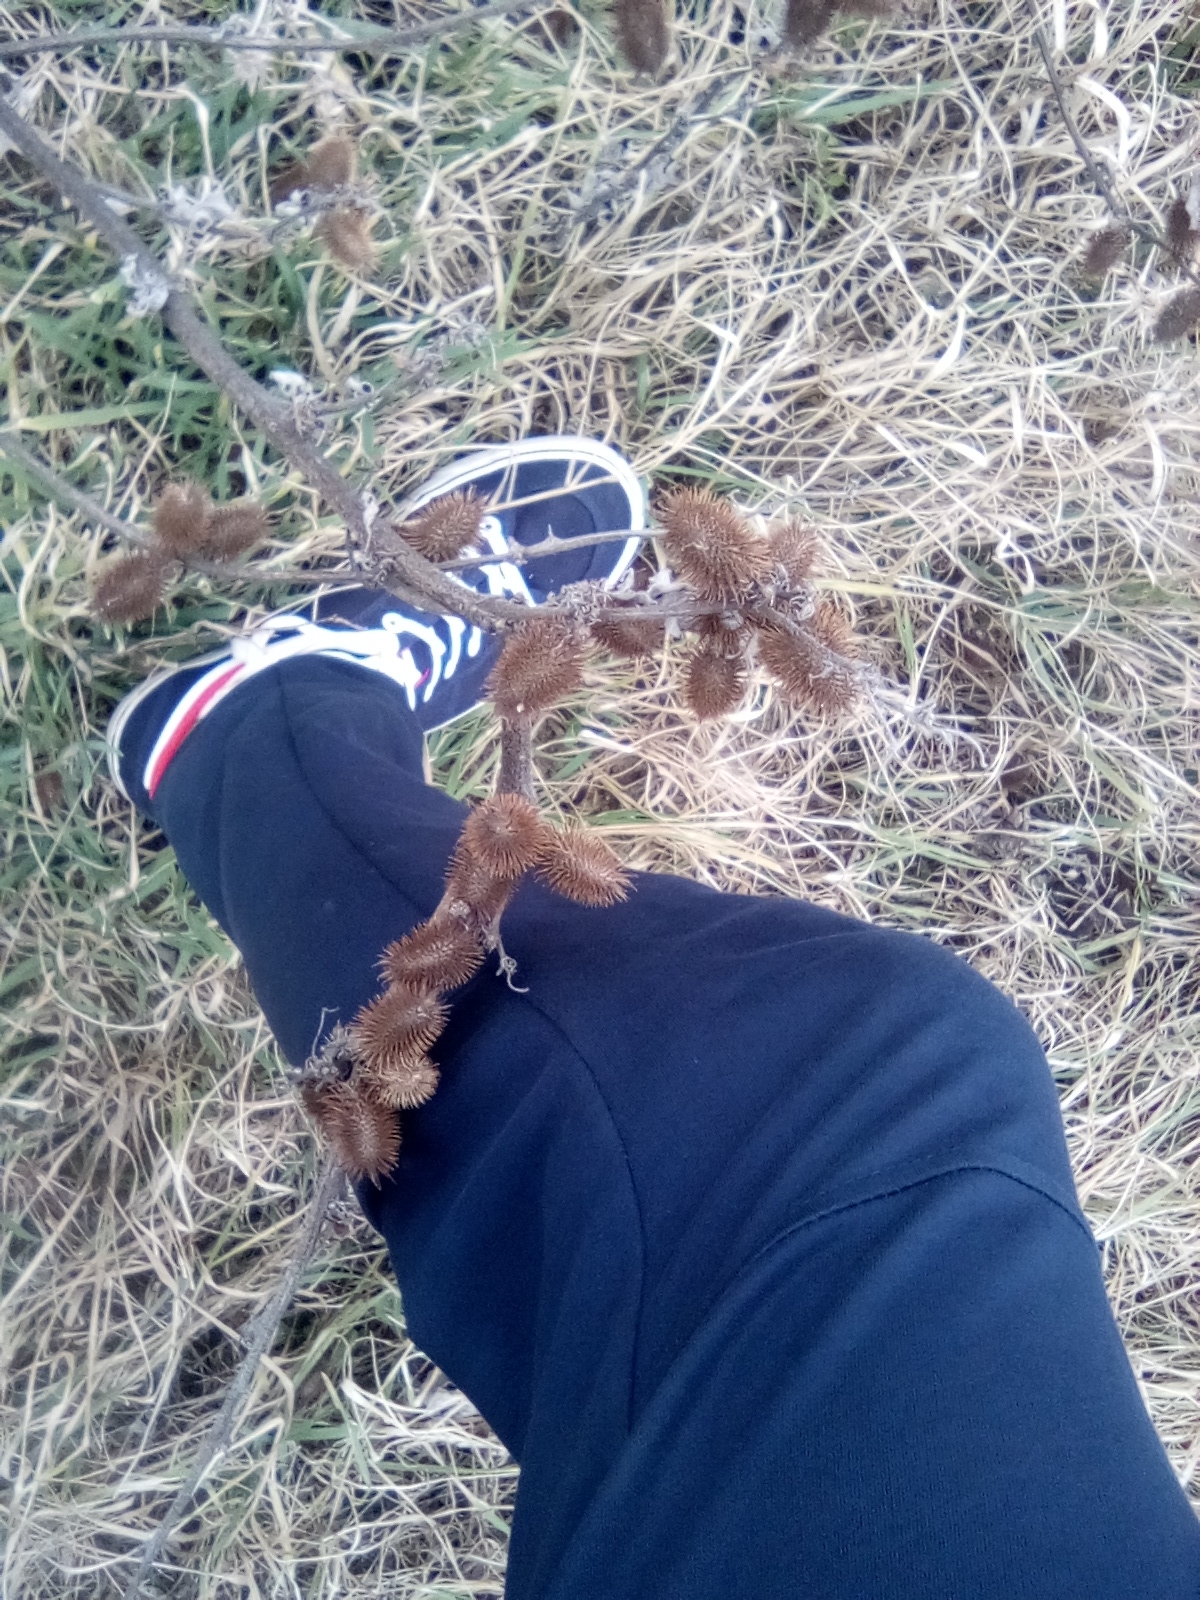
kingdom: Plantae
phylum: Tracheophyta
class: Magnoliopsida
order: Asterales
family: Asteraceae
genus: Xanthium
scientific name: Xanthium orientale
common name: Californian burr
